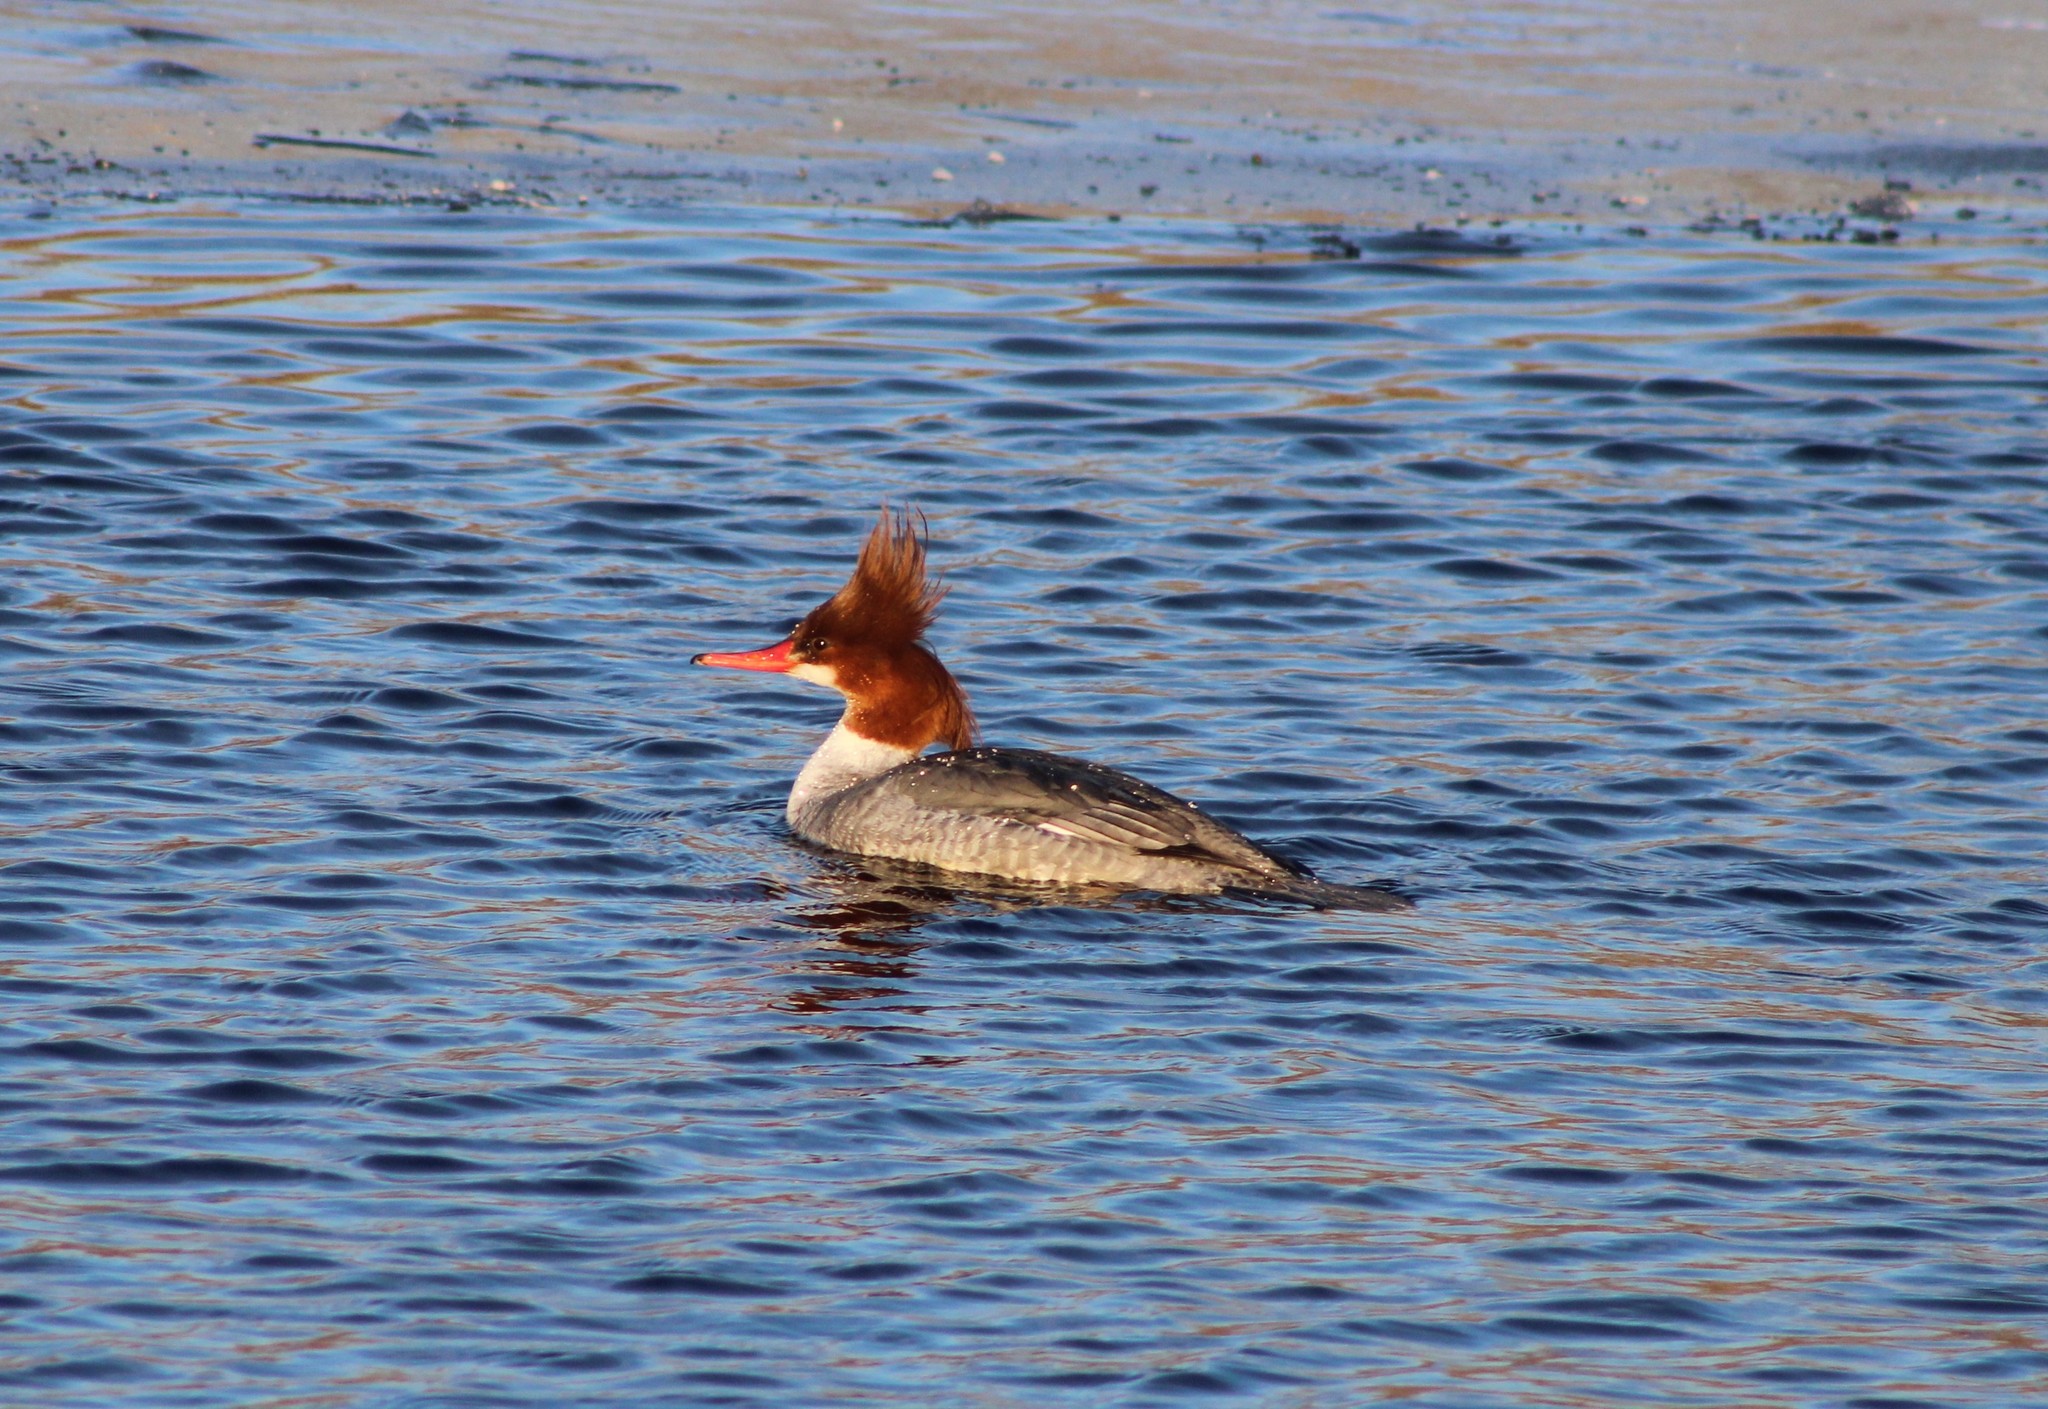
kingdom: Animalia
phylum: Chordata
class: Aves
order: Anseriformes
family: Anatidae
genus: Mergus
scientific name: Mergus merganser
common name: Common merganser
